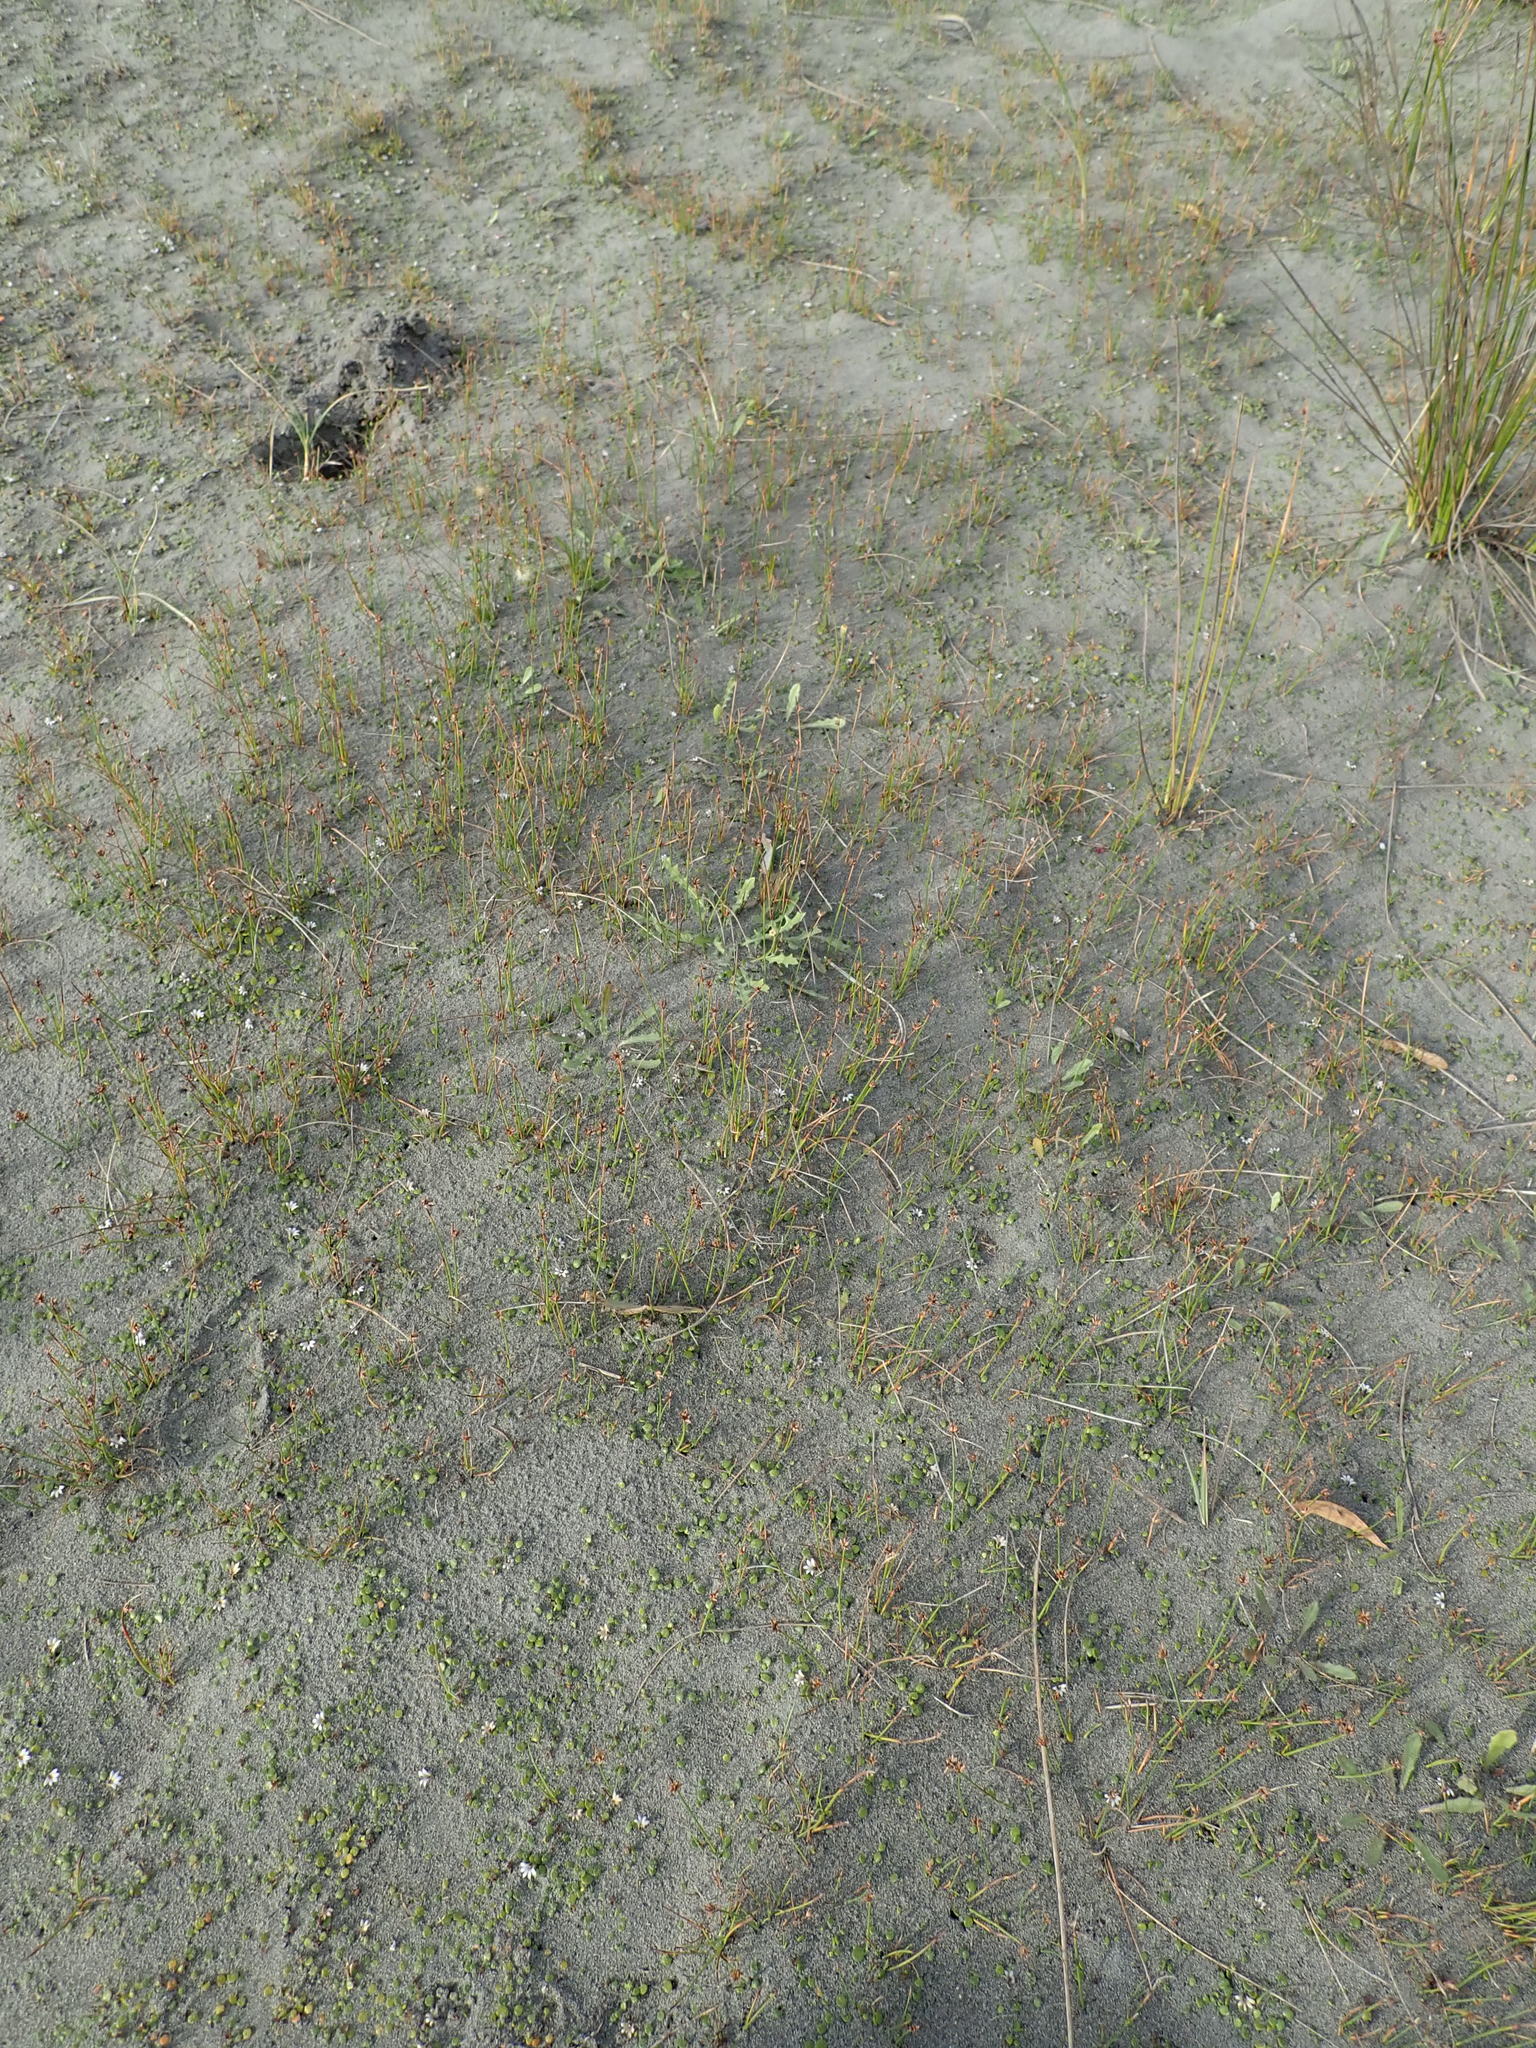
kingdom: Plantae
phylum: Tracheophyta
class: Liliopsida
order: Poales
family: Cyperaceae
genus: Schoenus
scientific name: Schoenus nitens
